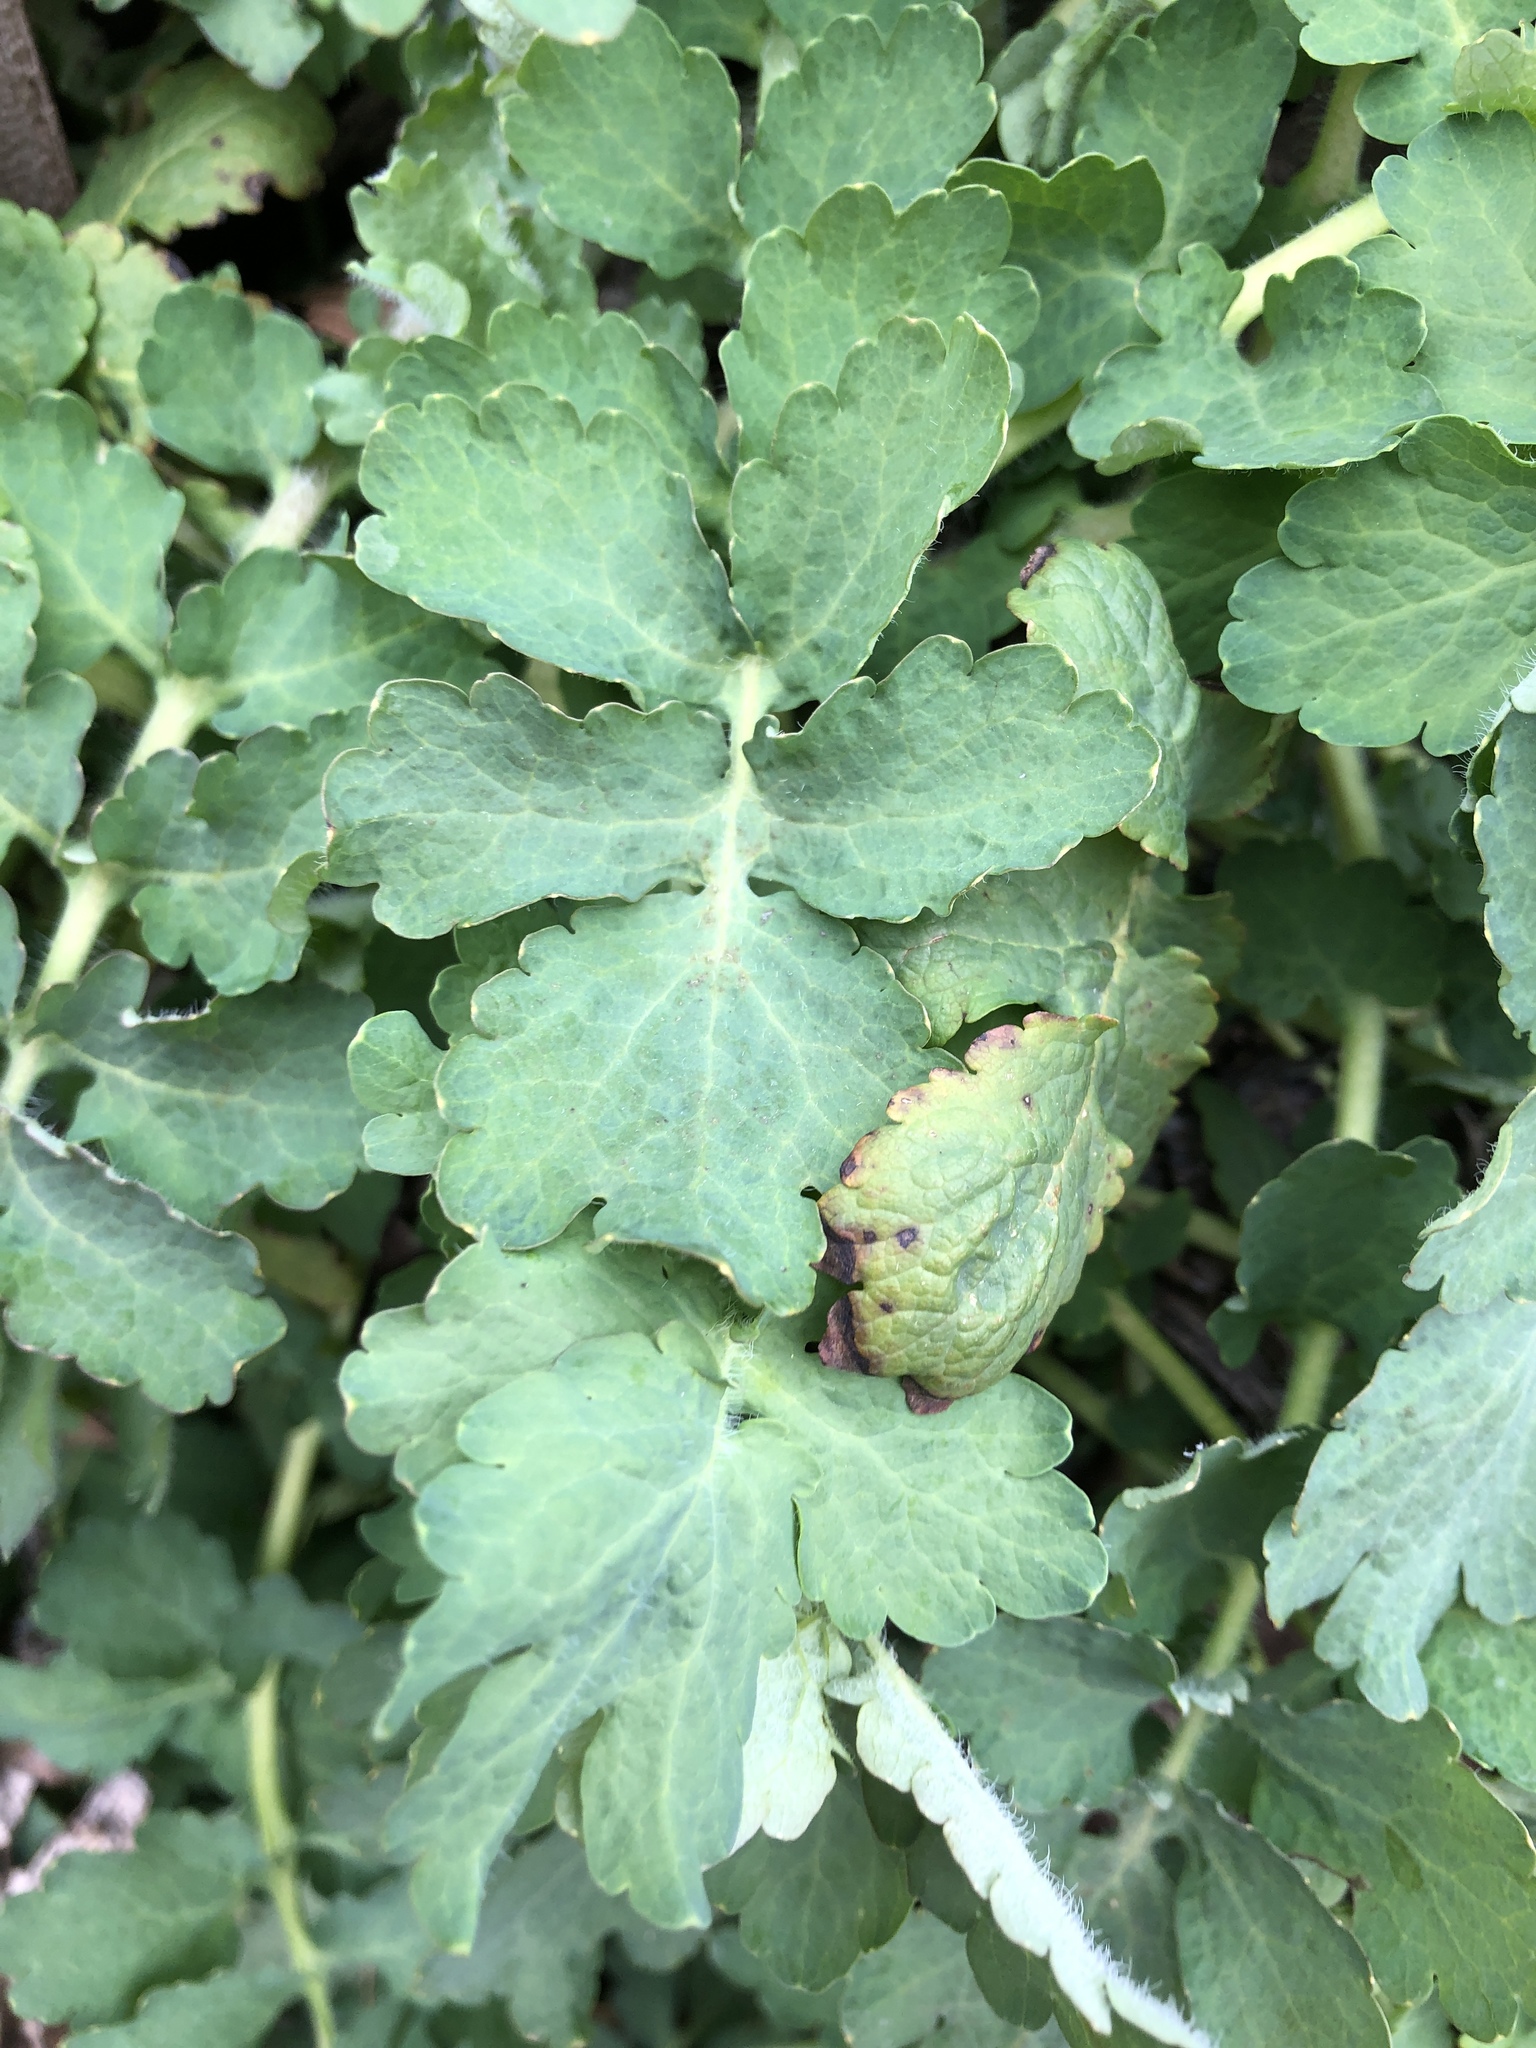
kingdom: Plantae
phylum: Tracheophyta
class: Magnoliopsida
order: Ranunculales
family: Papaveraceae
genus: Chelidonium
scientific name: Chelidonium majus
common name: Greater celandine
